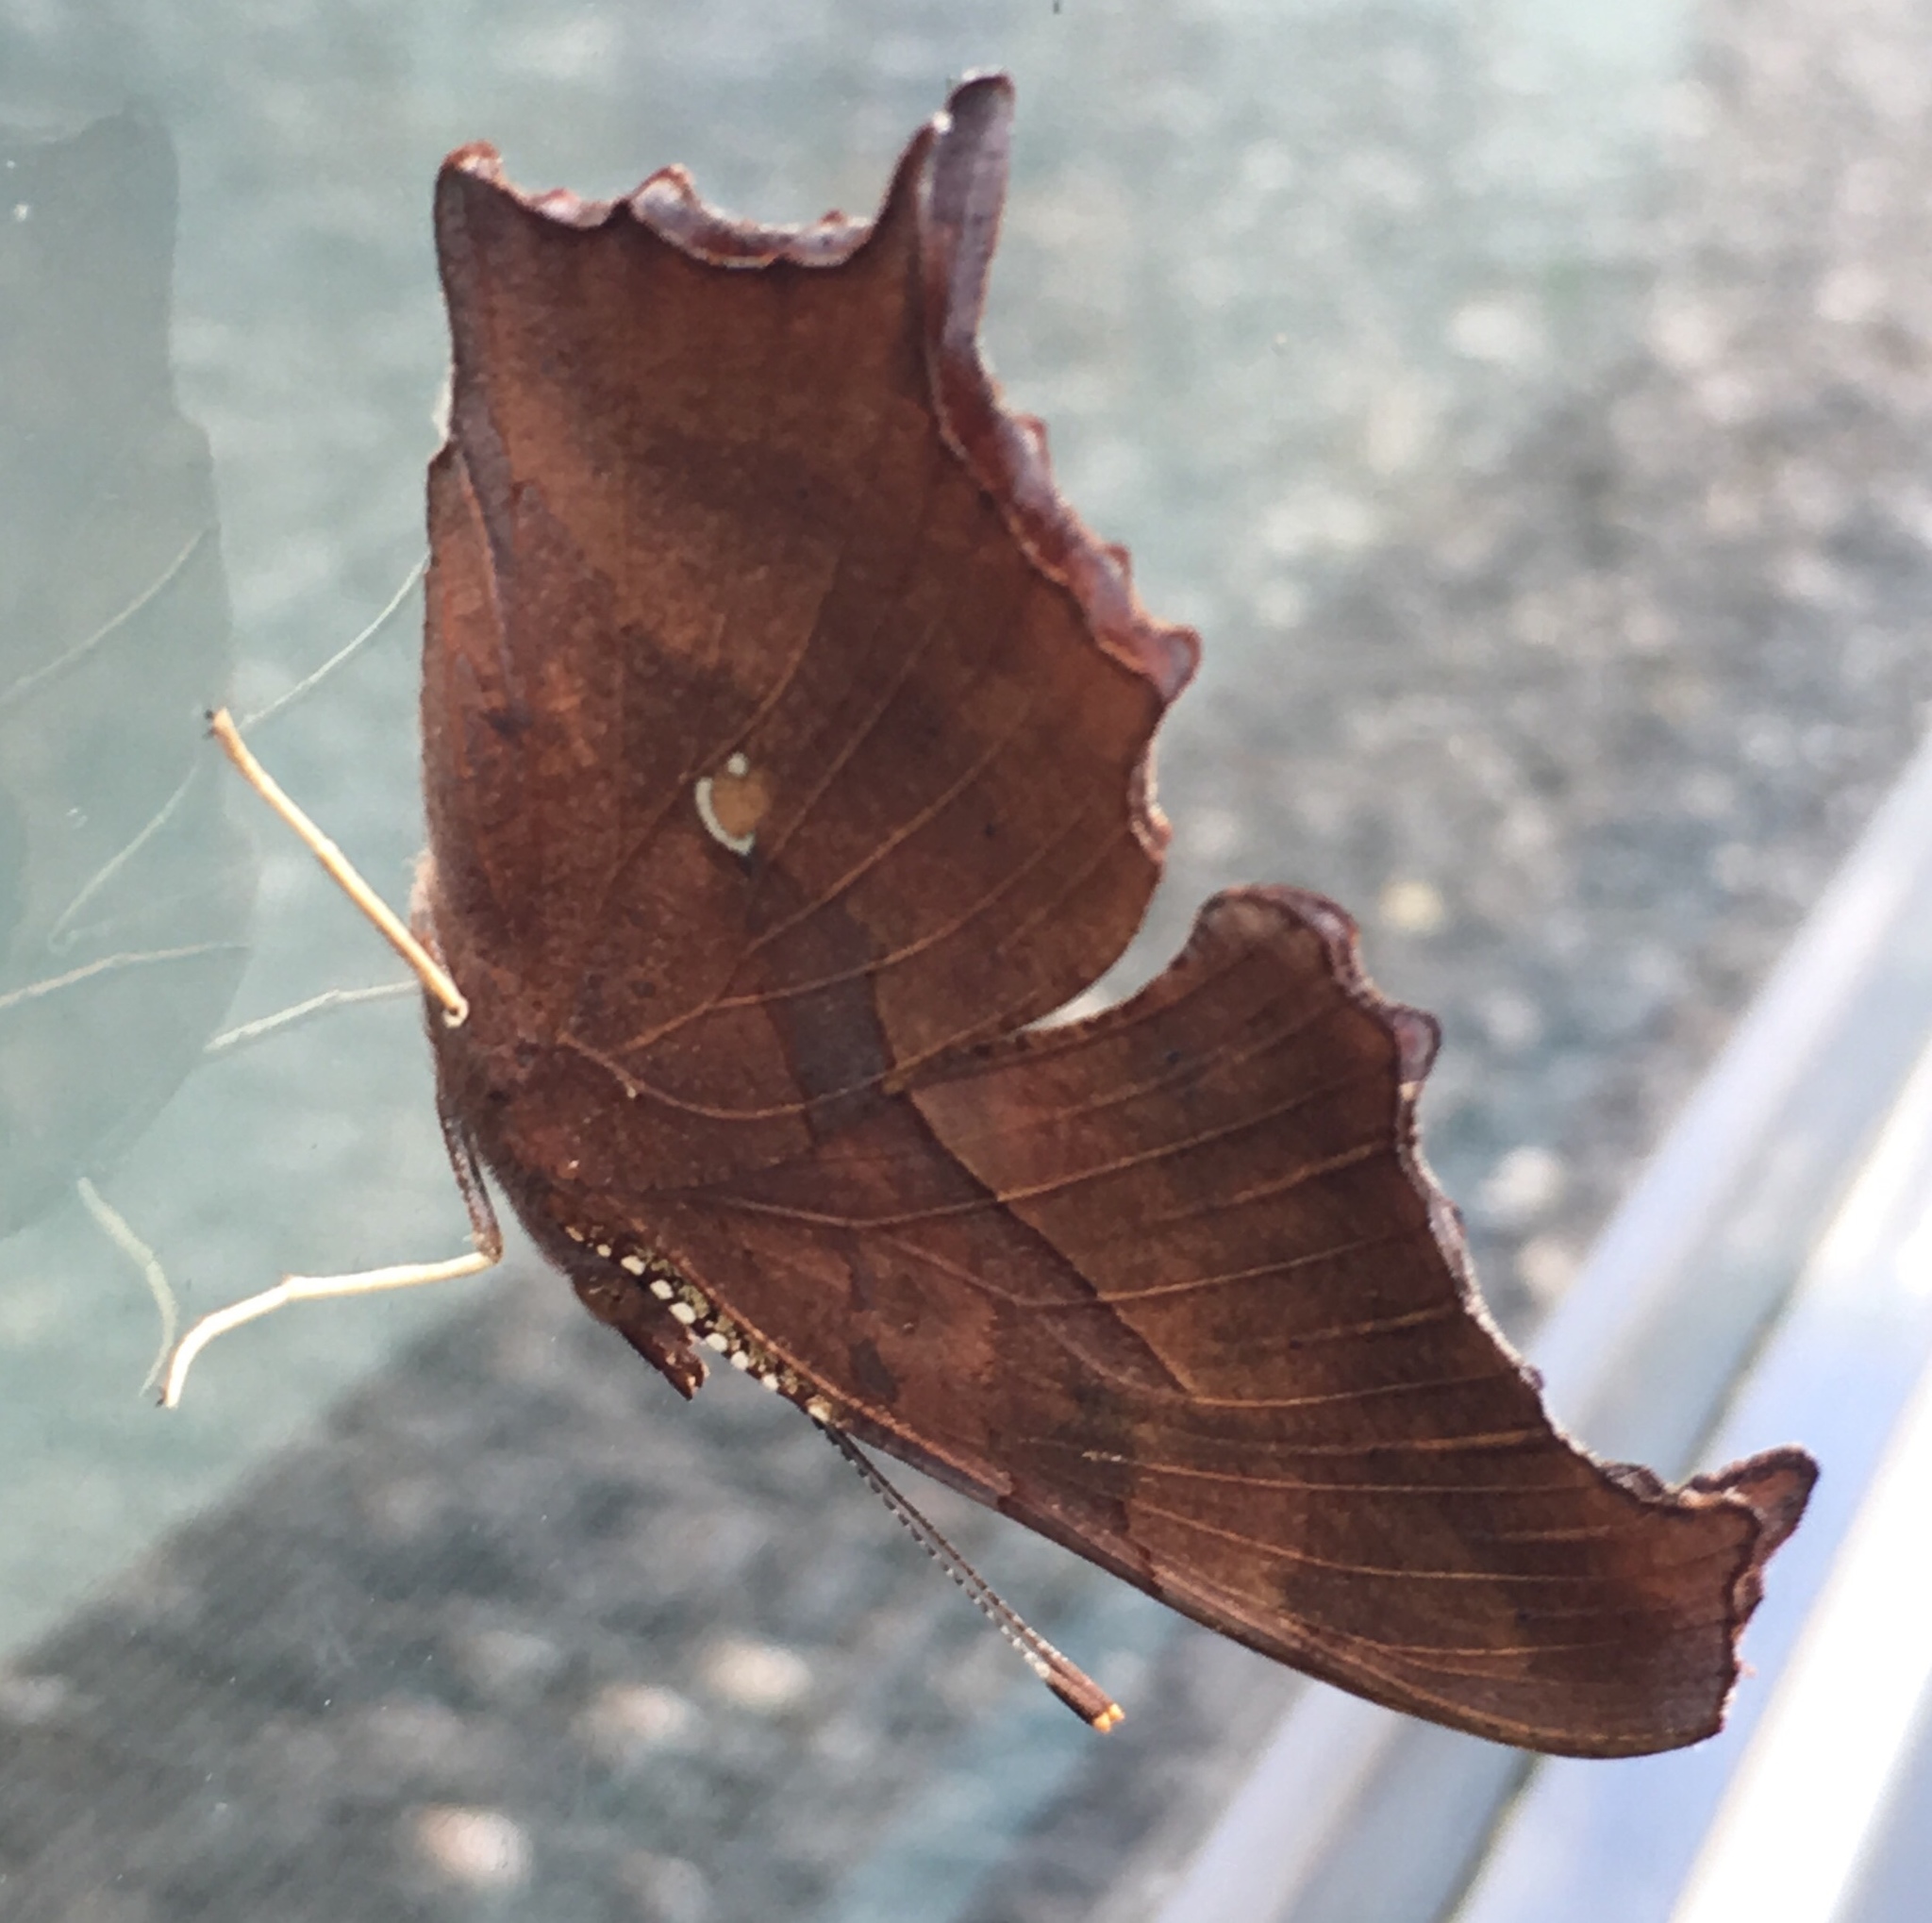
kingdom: Animalia
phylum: Arthropoda
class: Insecta
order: Lepidoptera
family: Nymphalidae
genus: Polygonia
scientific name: Polygonia interrogationis
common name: Question mark
